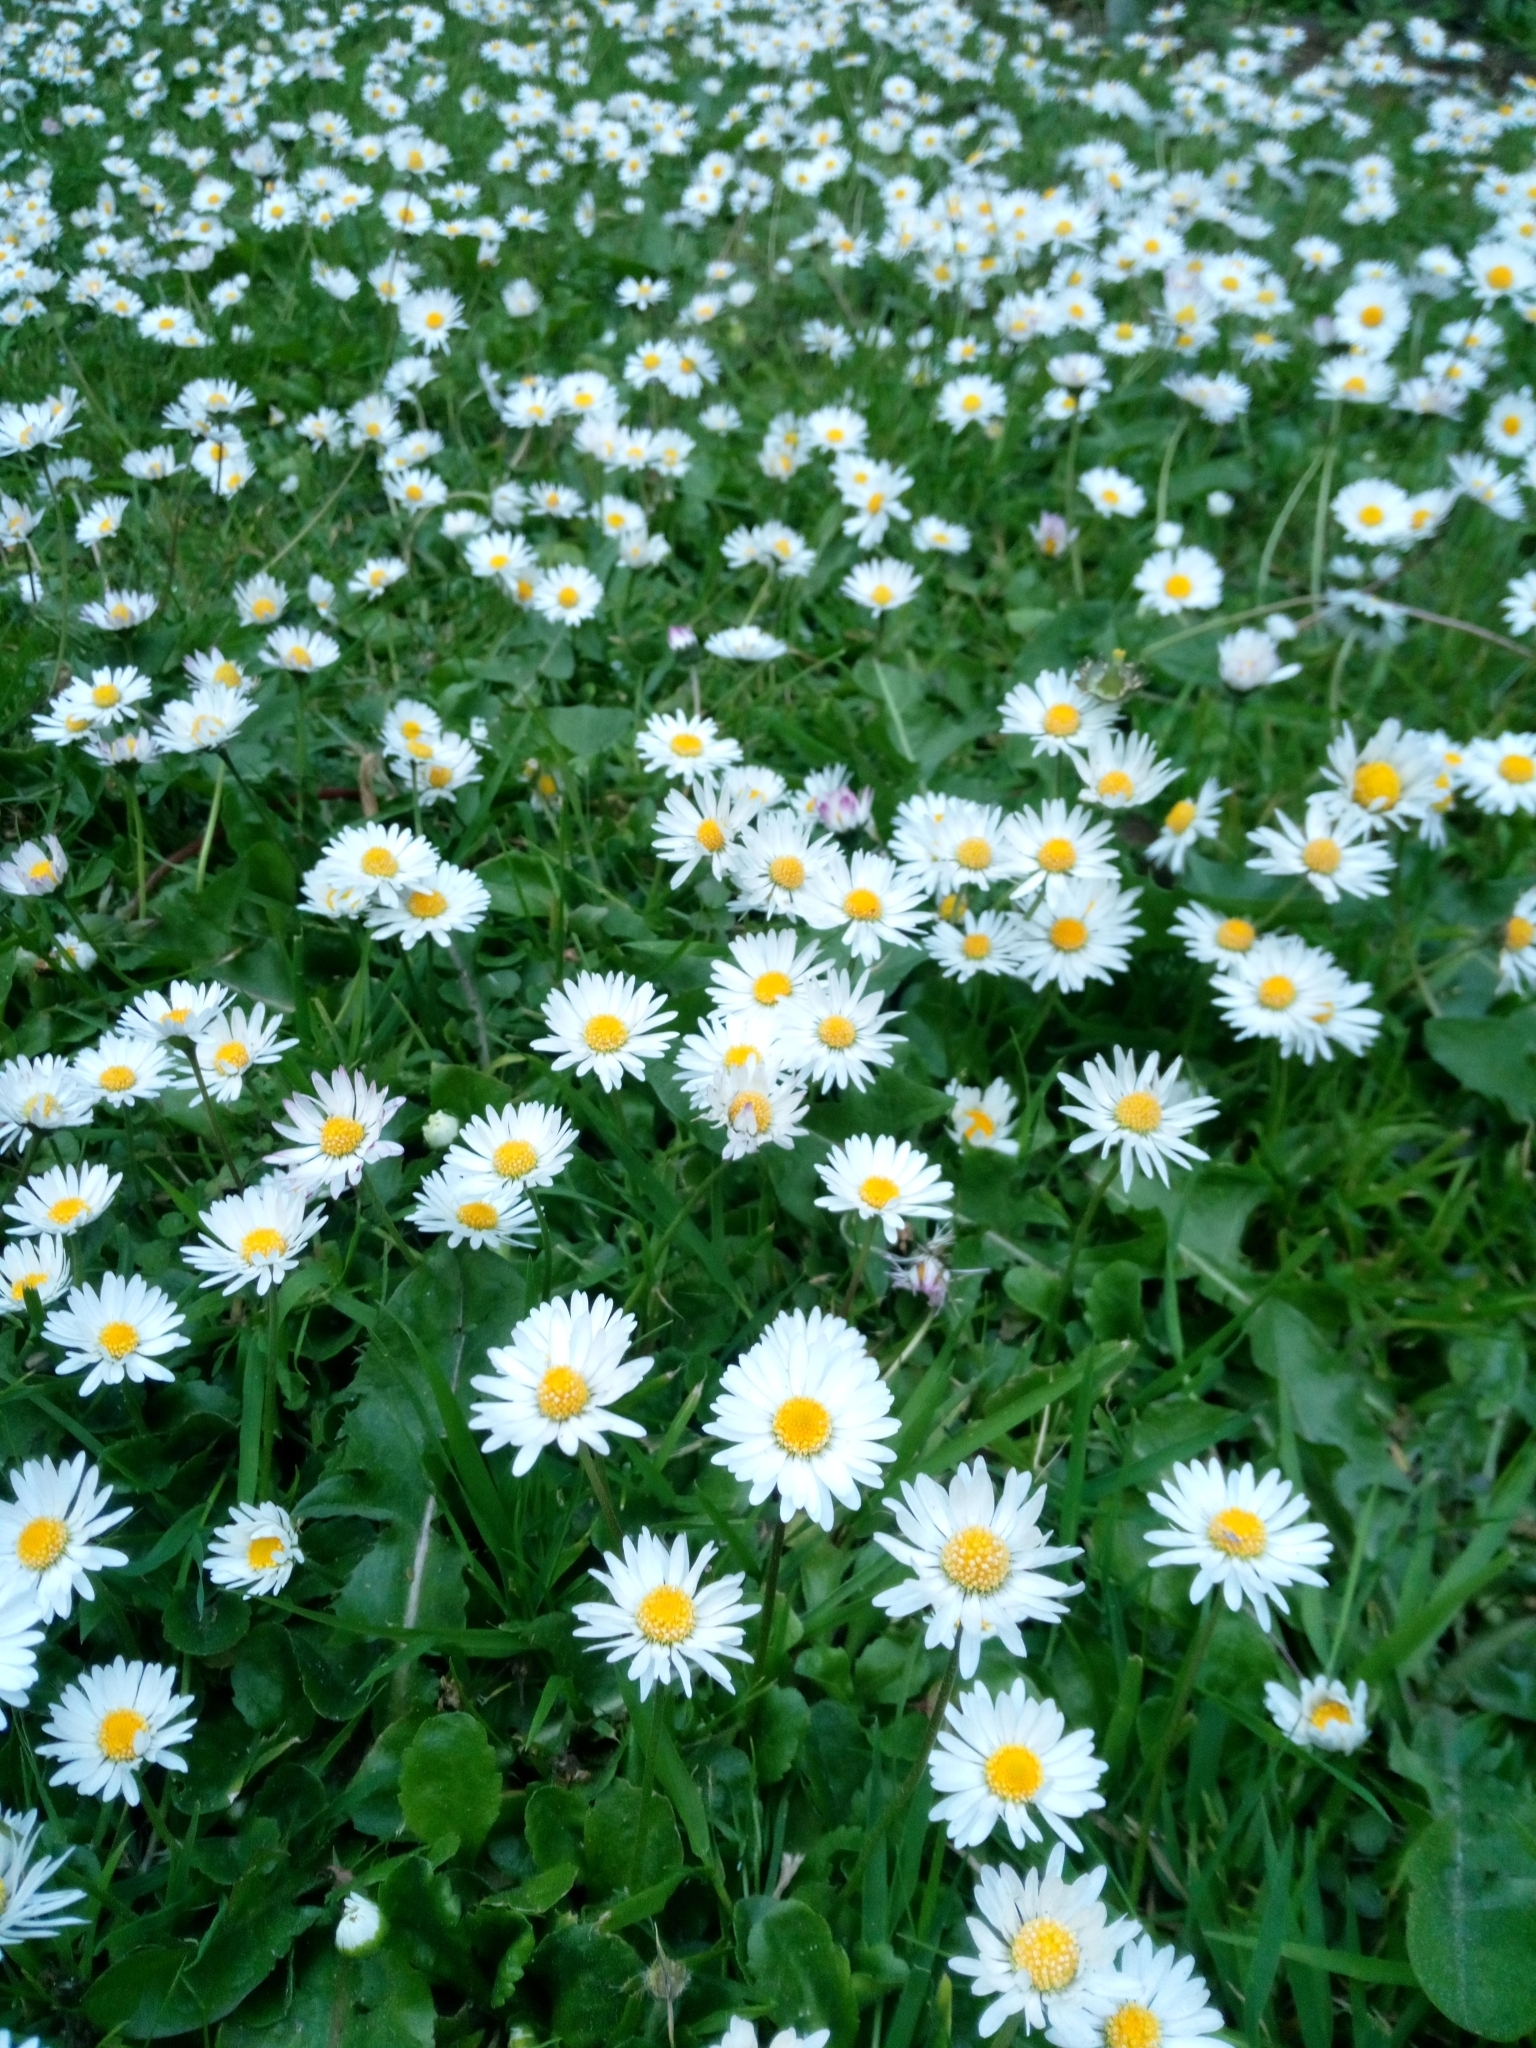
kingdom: Plantae
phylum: Tracheophyta
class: Magnoliopsida
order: Asterales
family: Asteraceae
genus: Bellis
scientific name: Bellis perennis
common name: Lawndaisy
